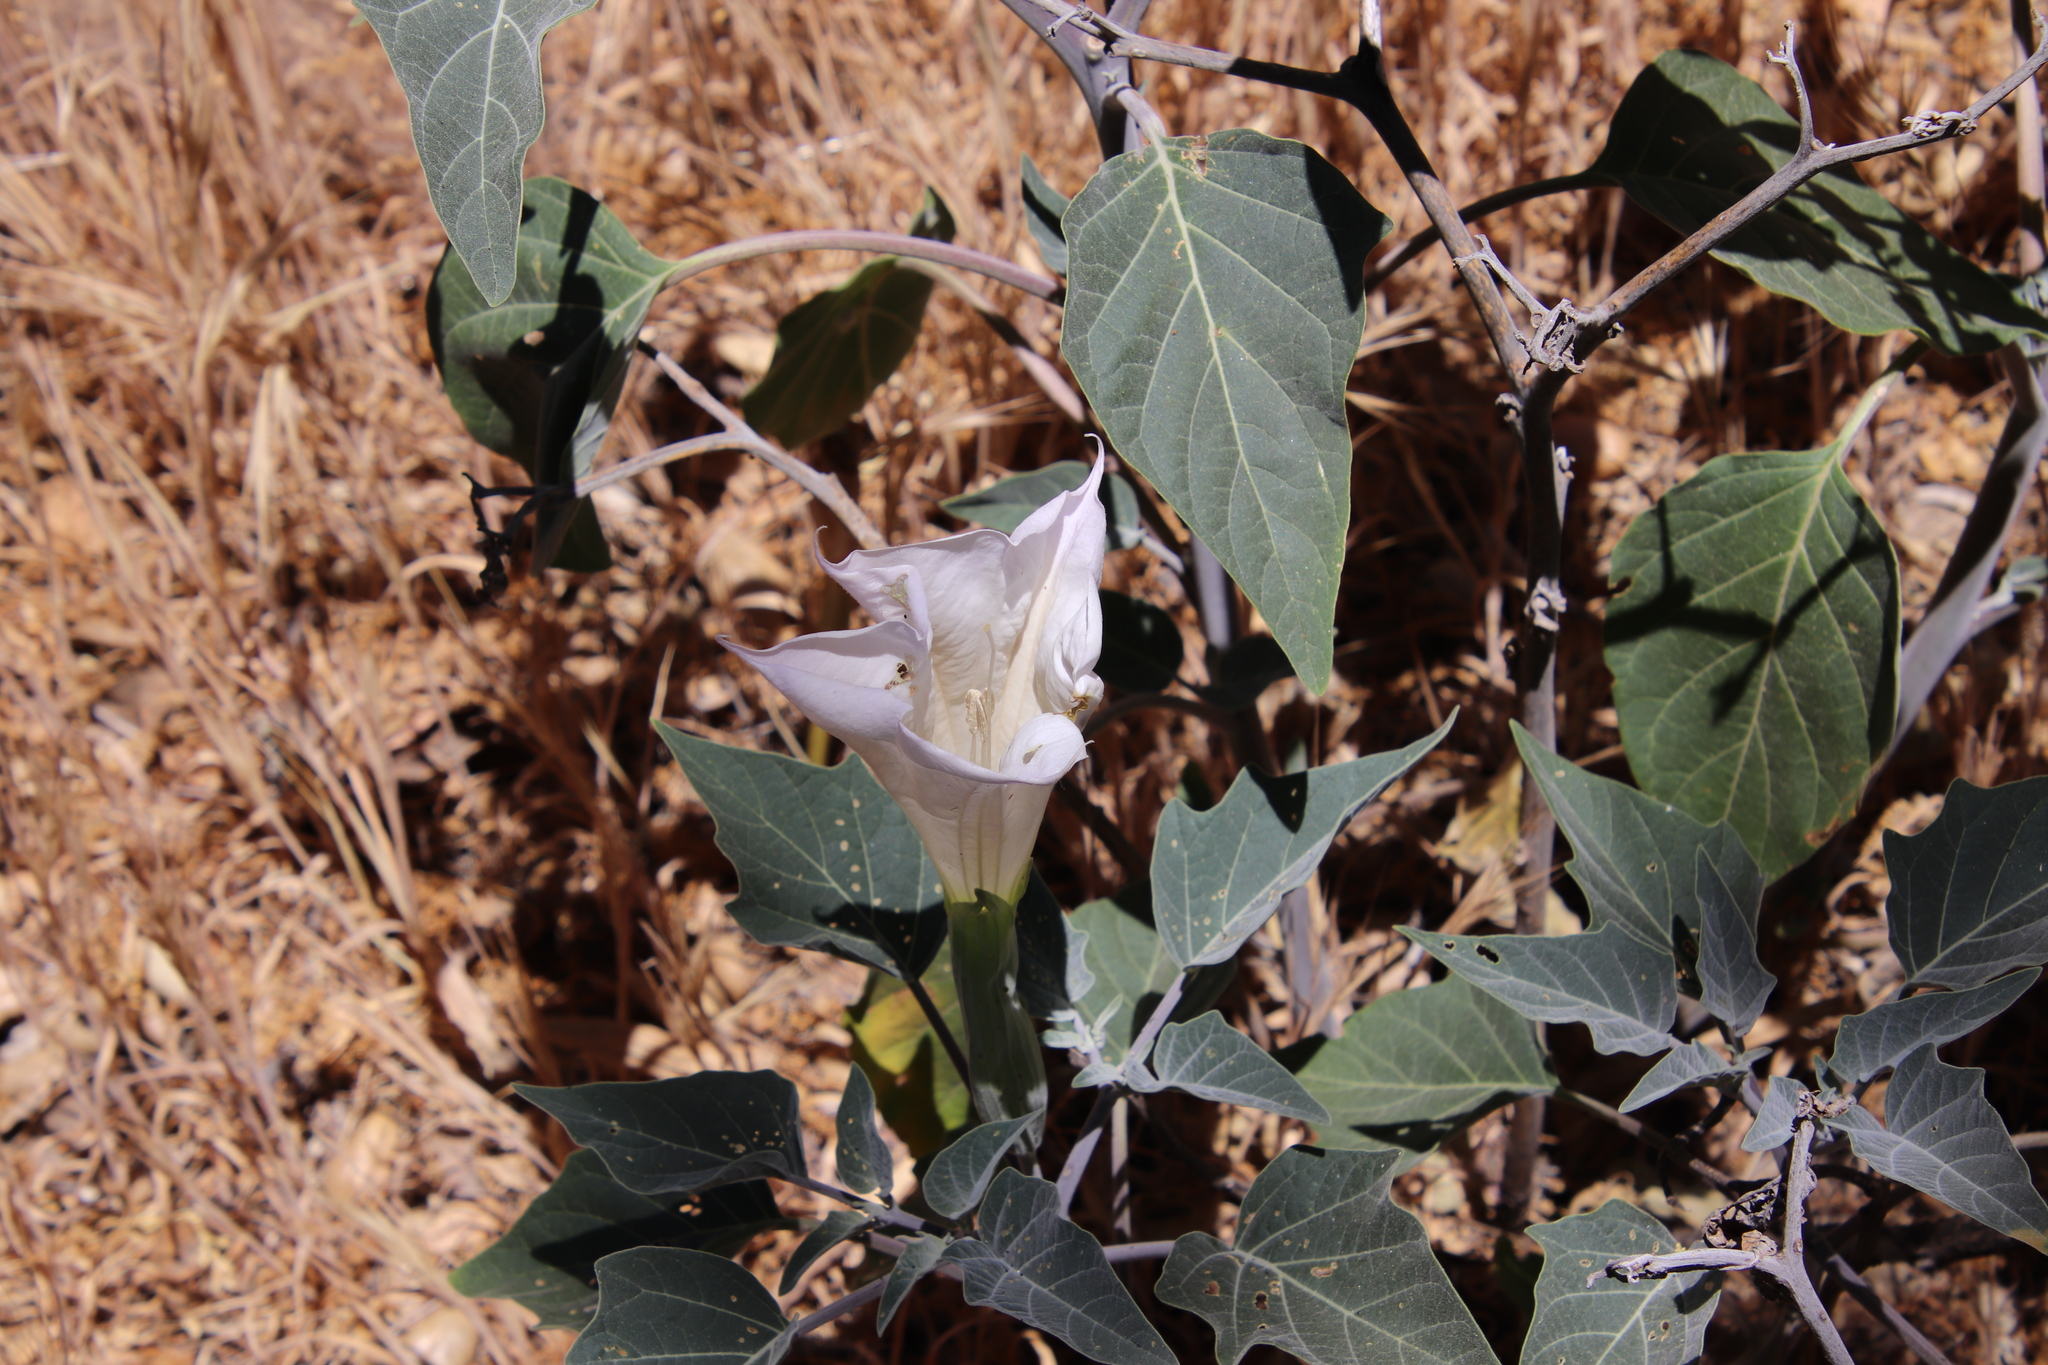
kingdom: Plantae
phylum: Tracheophyta
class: Magnoliopsida
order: Solanales
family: Solanaceae
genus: Datura
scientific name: Datura wrightii
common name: Sacred thorn-apple
